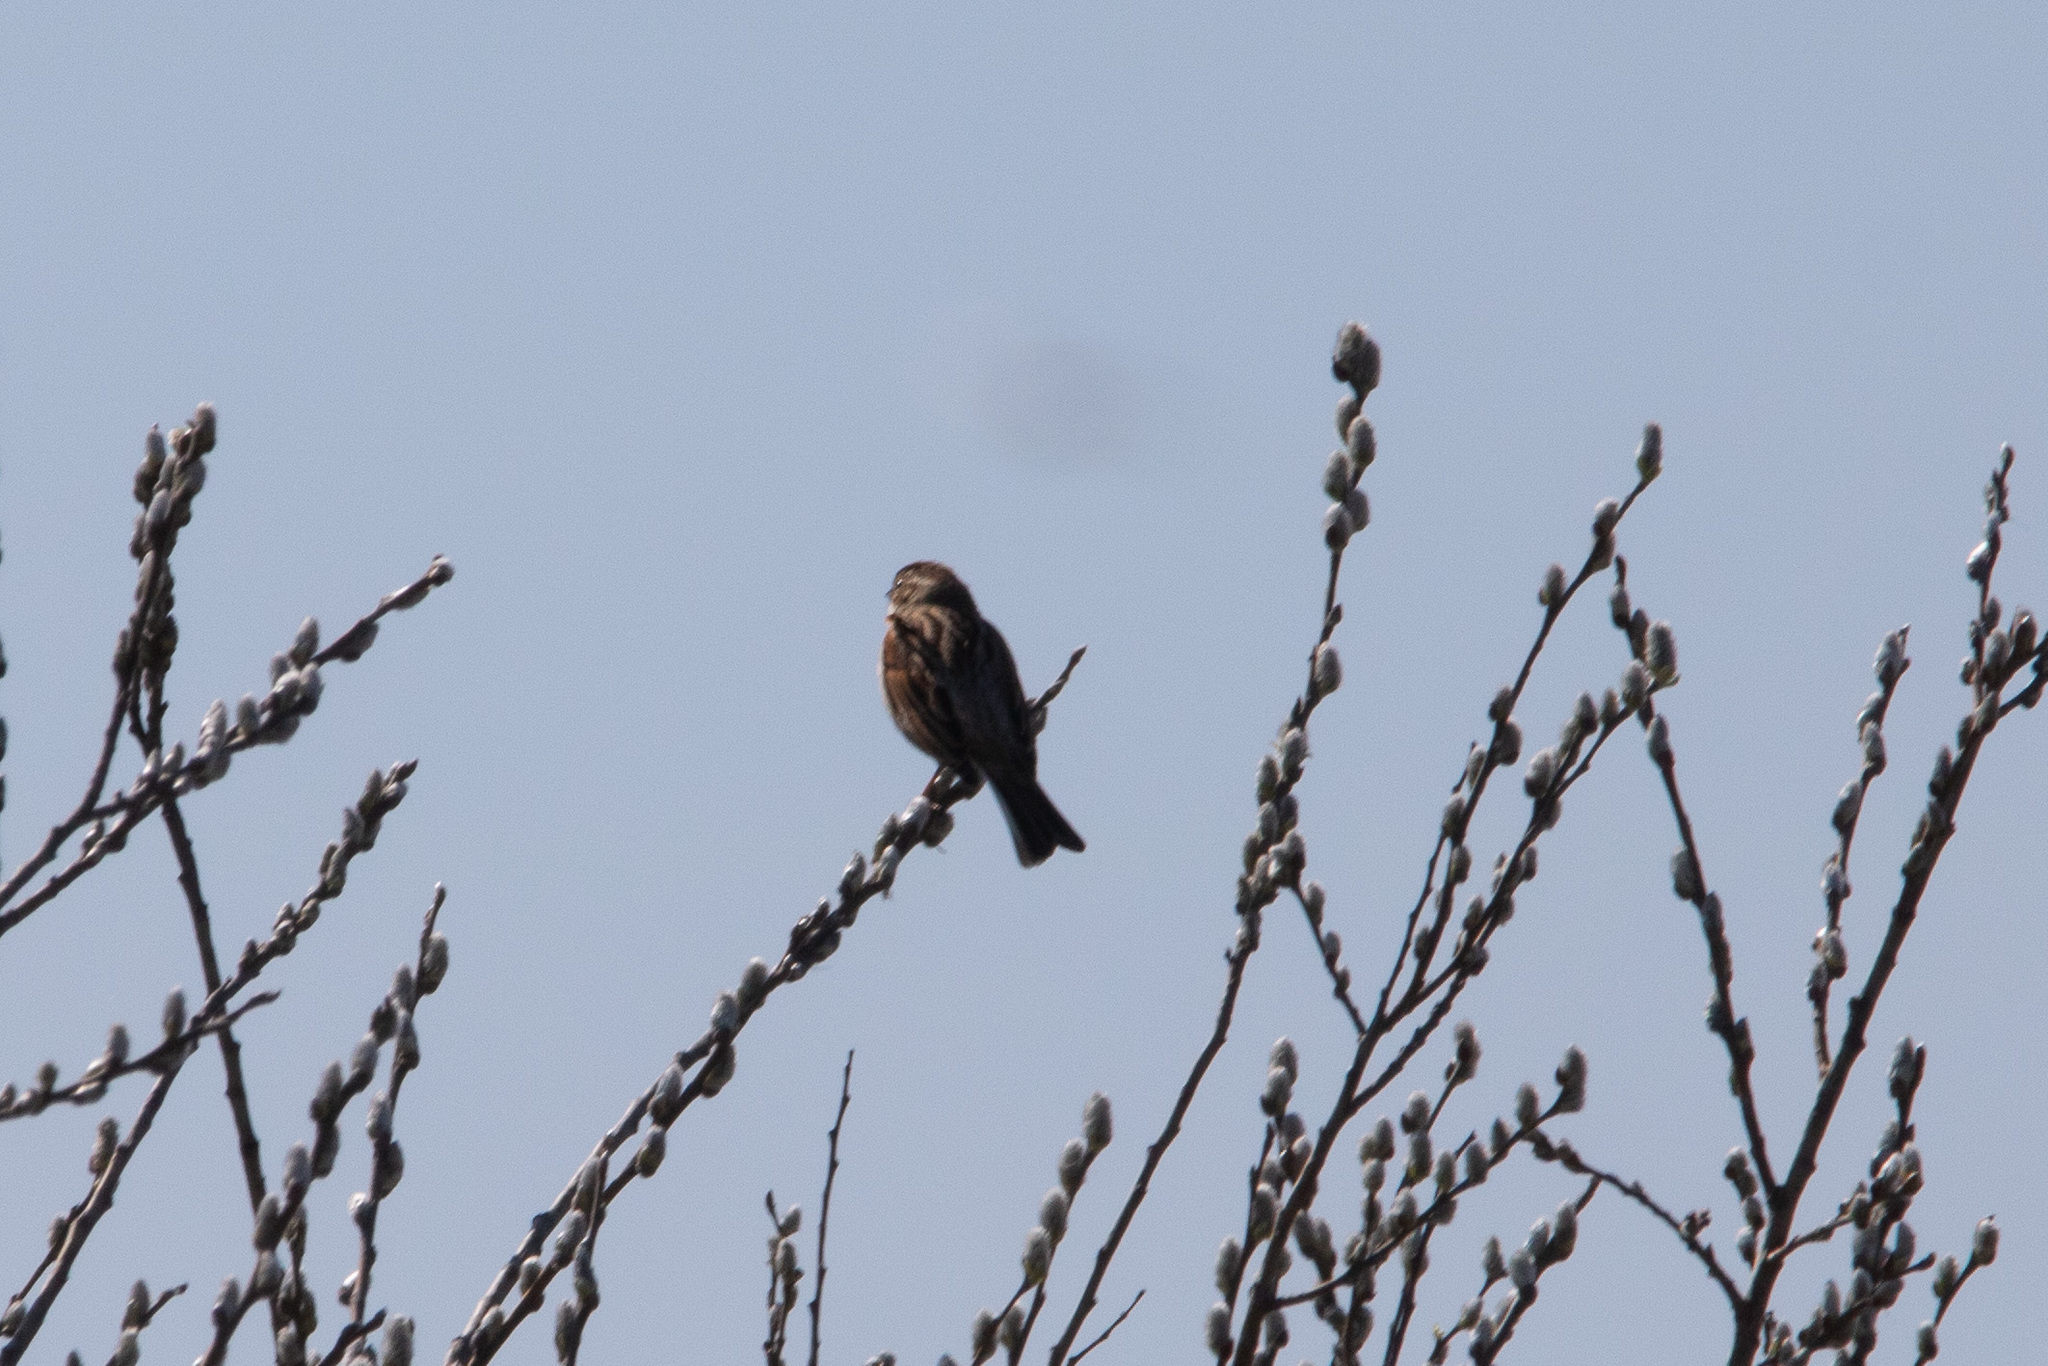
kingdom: Animalia
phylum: Chordata
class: Aves
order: Passeriformes
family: Emberizidae
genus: Emberiza
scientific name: Emberiza schoeniclus
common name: Reed bunting
